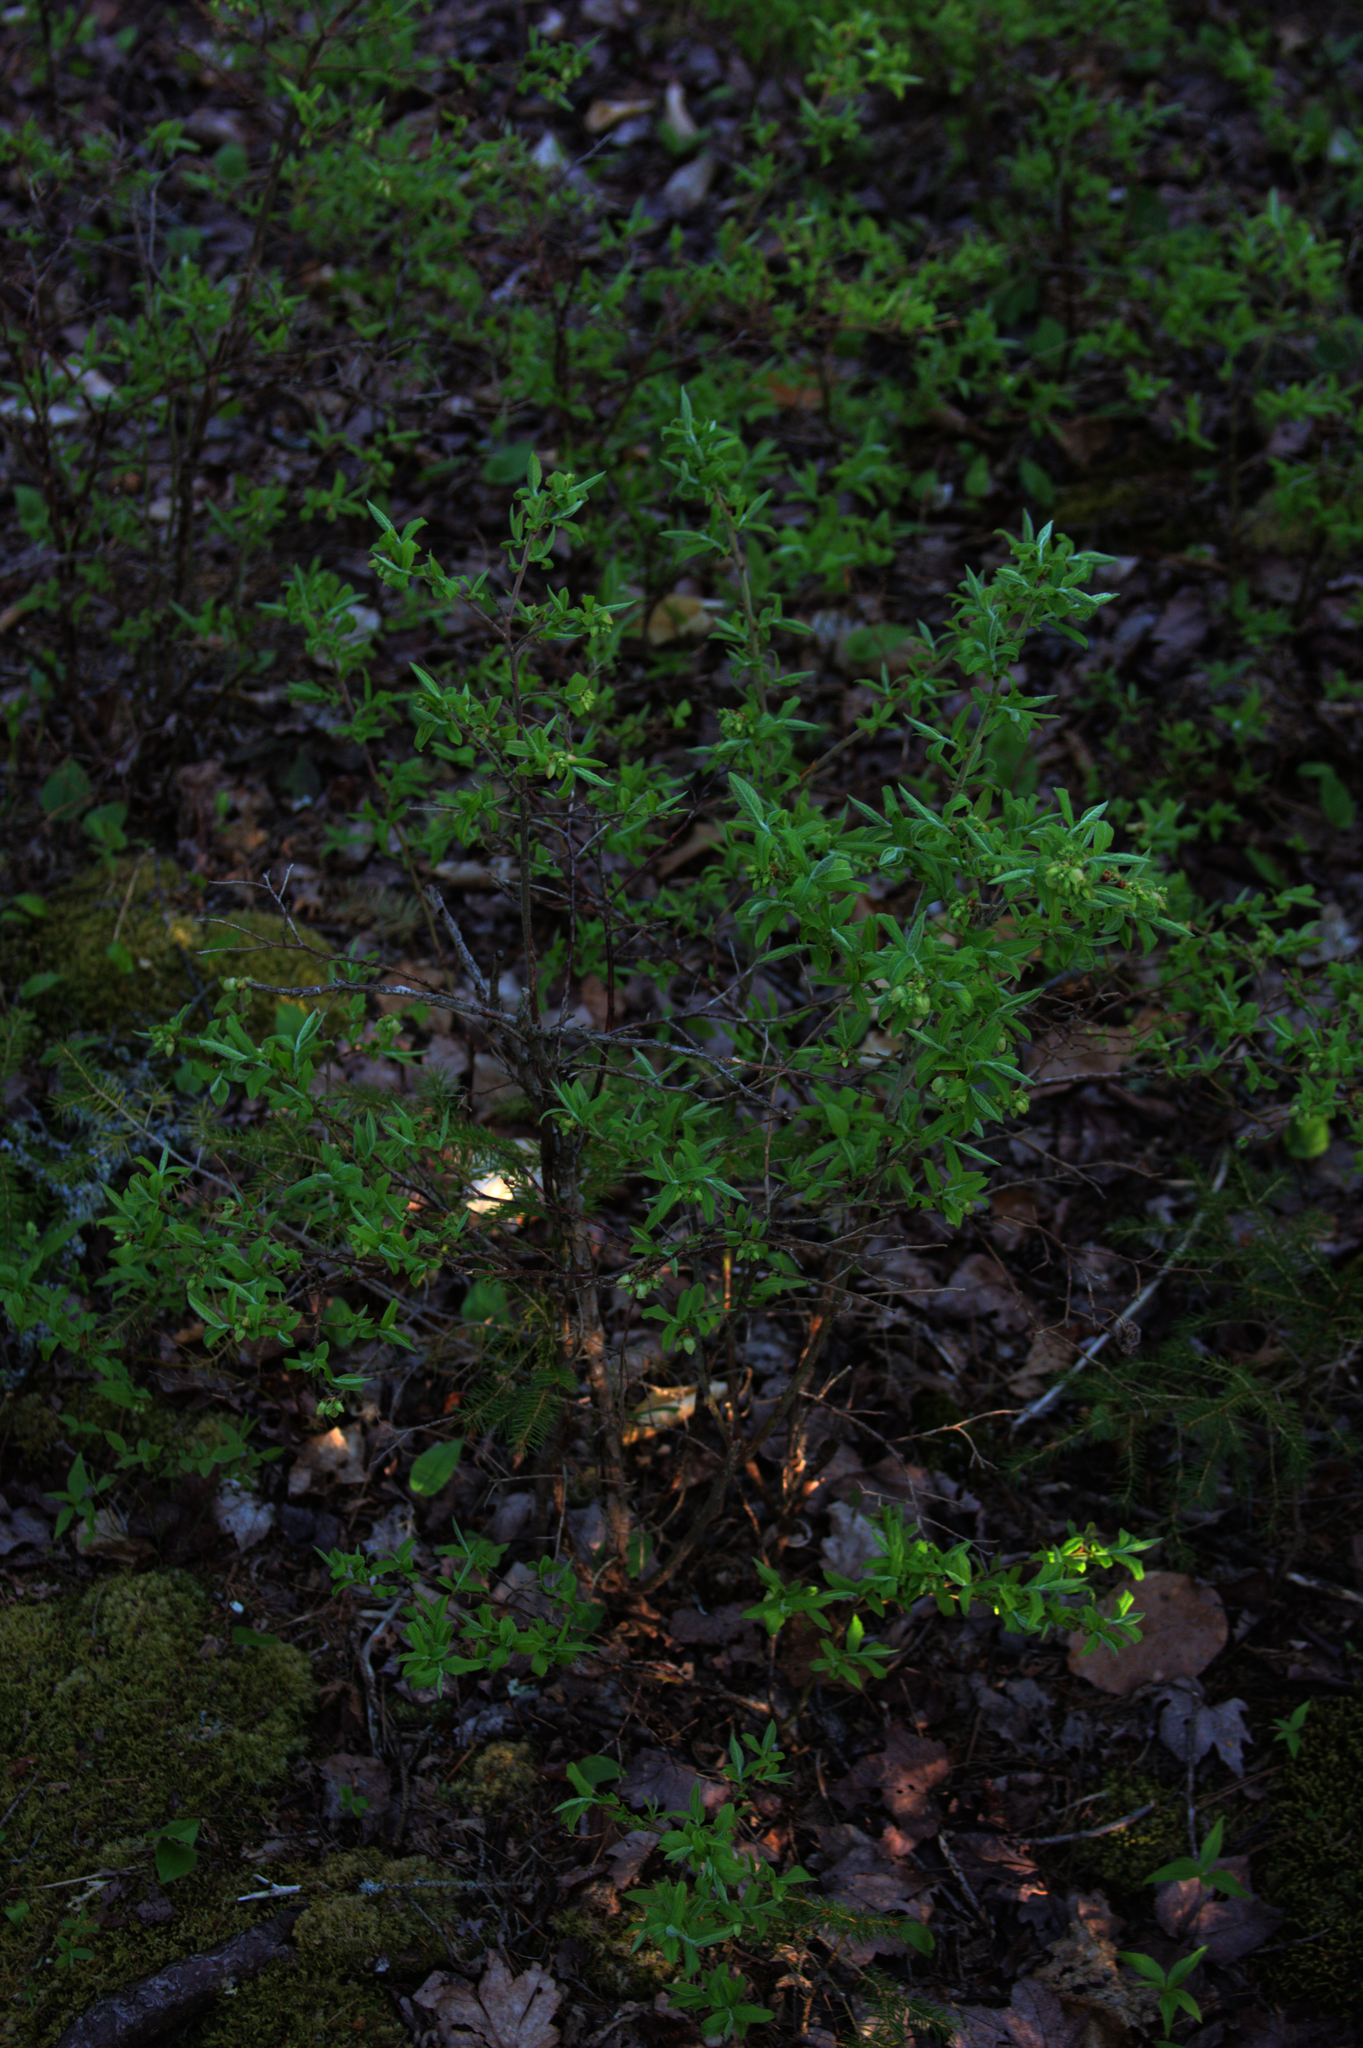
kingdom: Plantae
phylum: Tracheophyta
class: Magnoliopsida
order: Ericales
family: Ericaceae
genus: Vaccinium
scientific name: Vaccinium myrtilloides
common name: Canada blueberry
